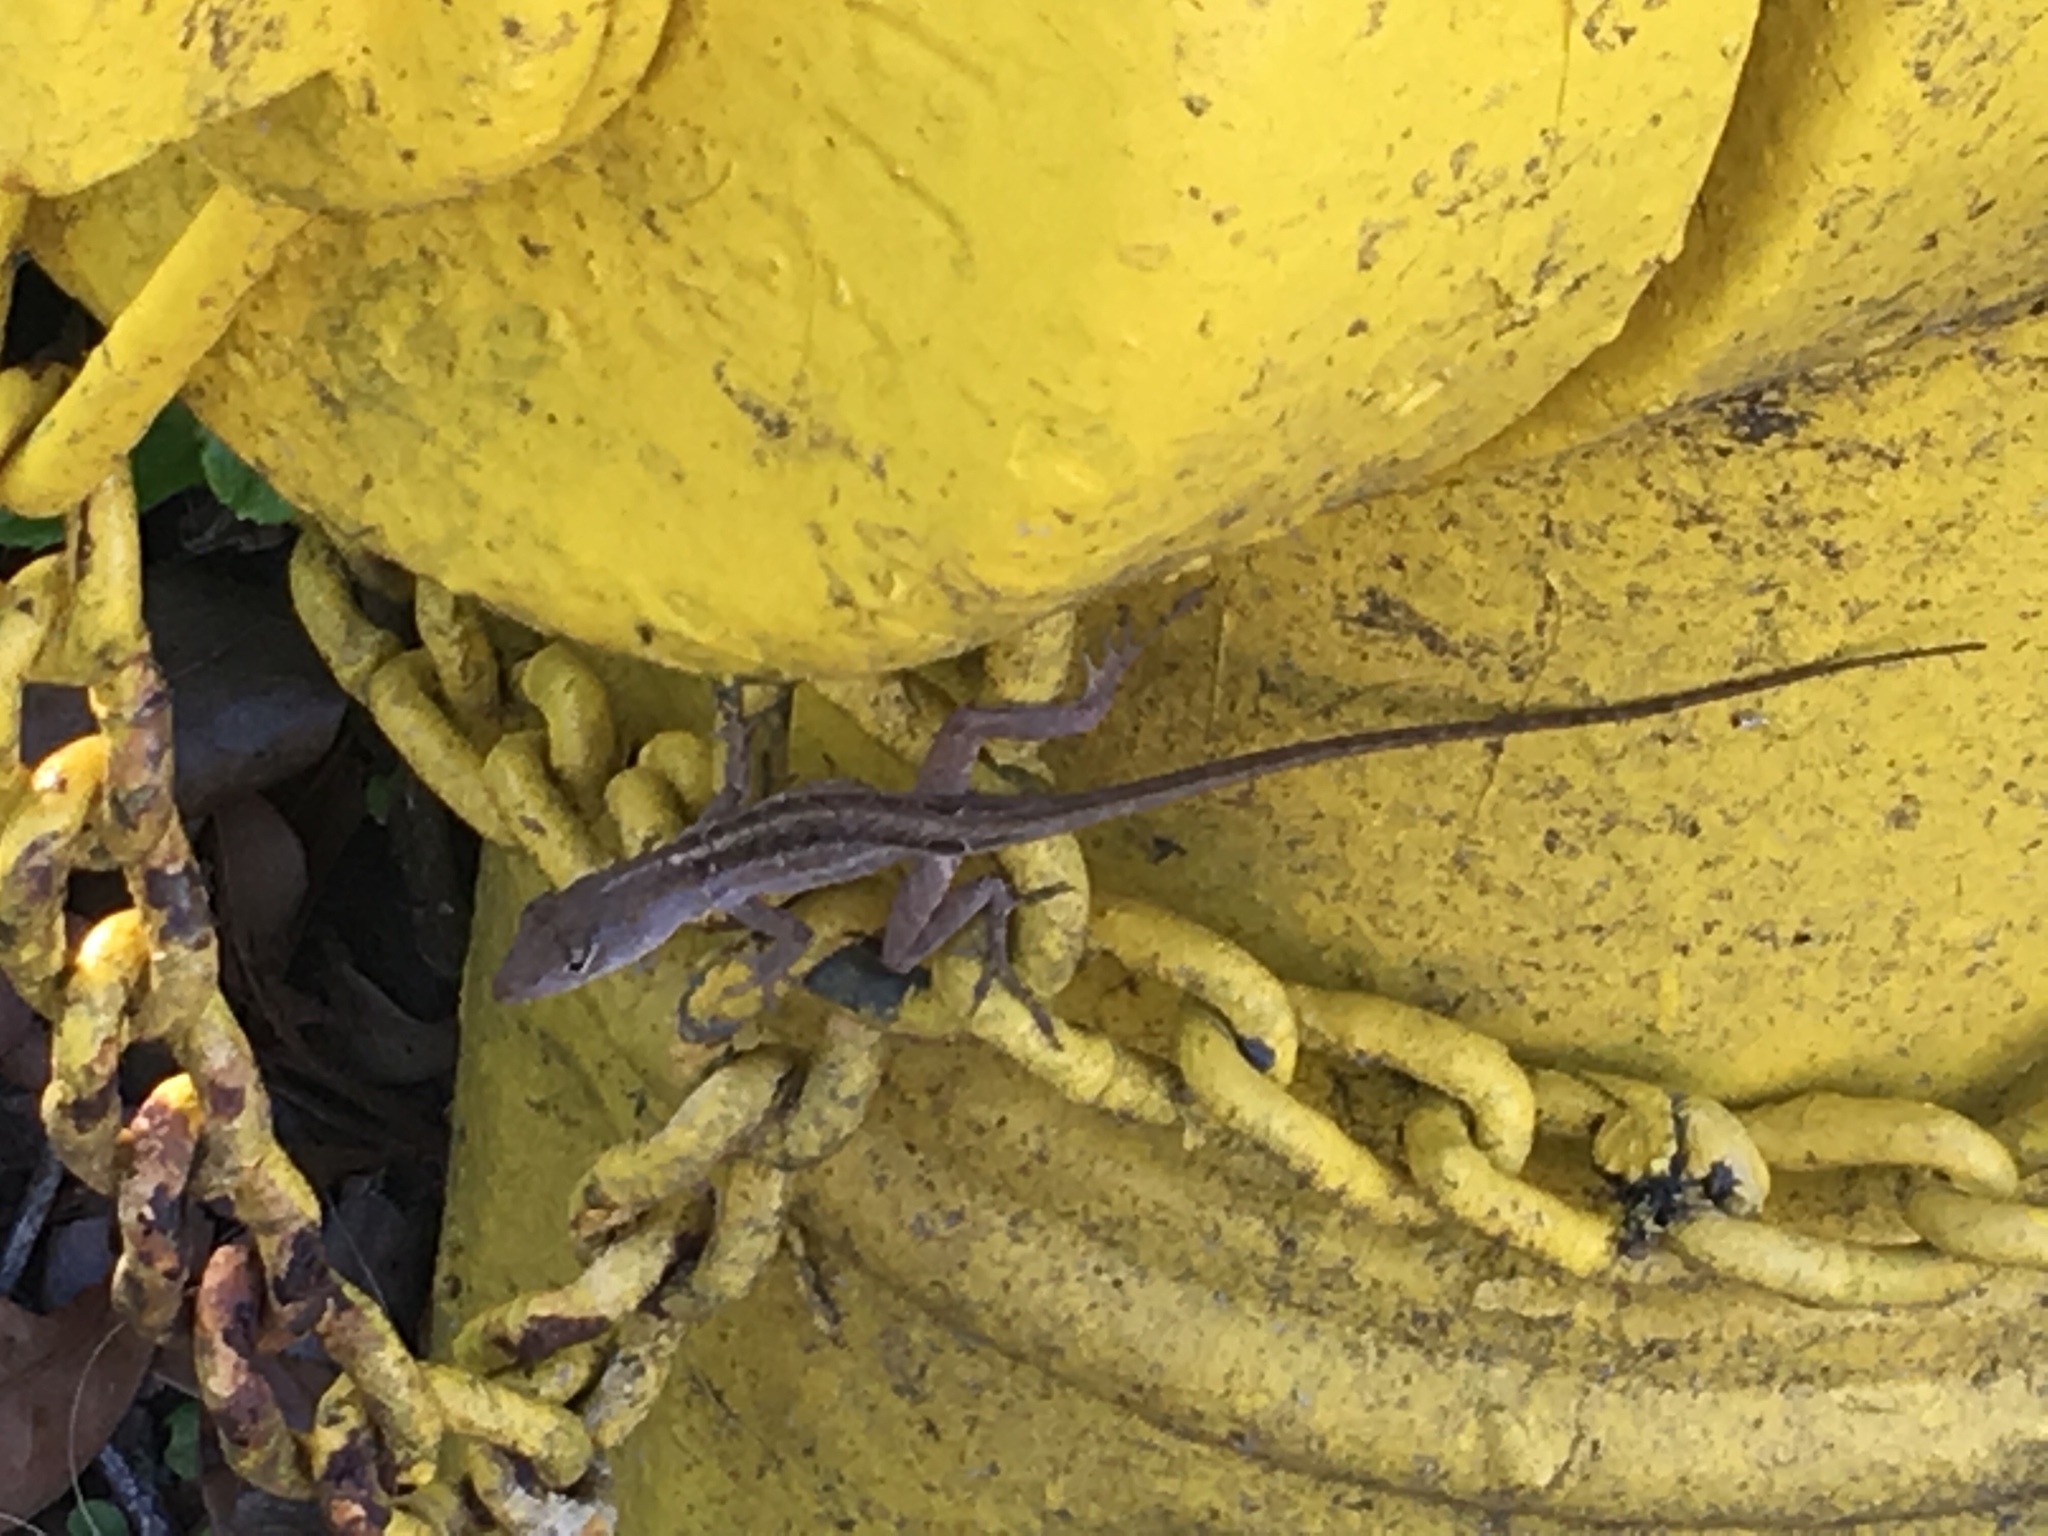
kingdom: Animalia
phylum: Chordata
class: Squamata
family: Dactyloidae
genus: Anolis
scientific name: Anolis sagrei
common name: Brown anole
